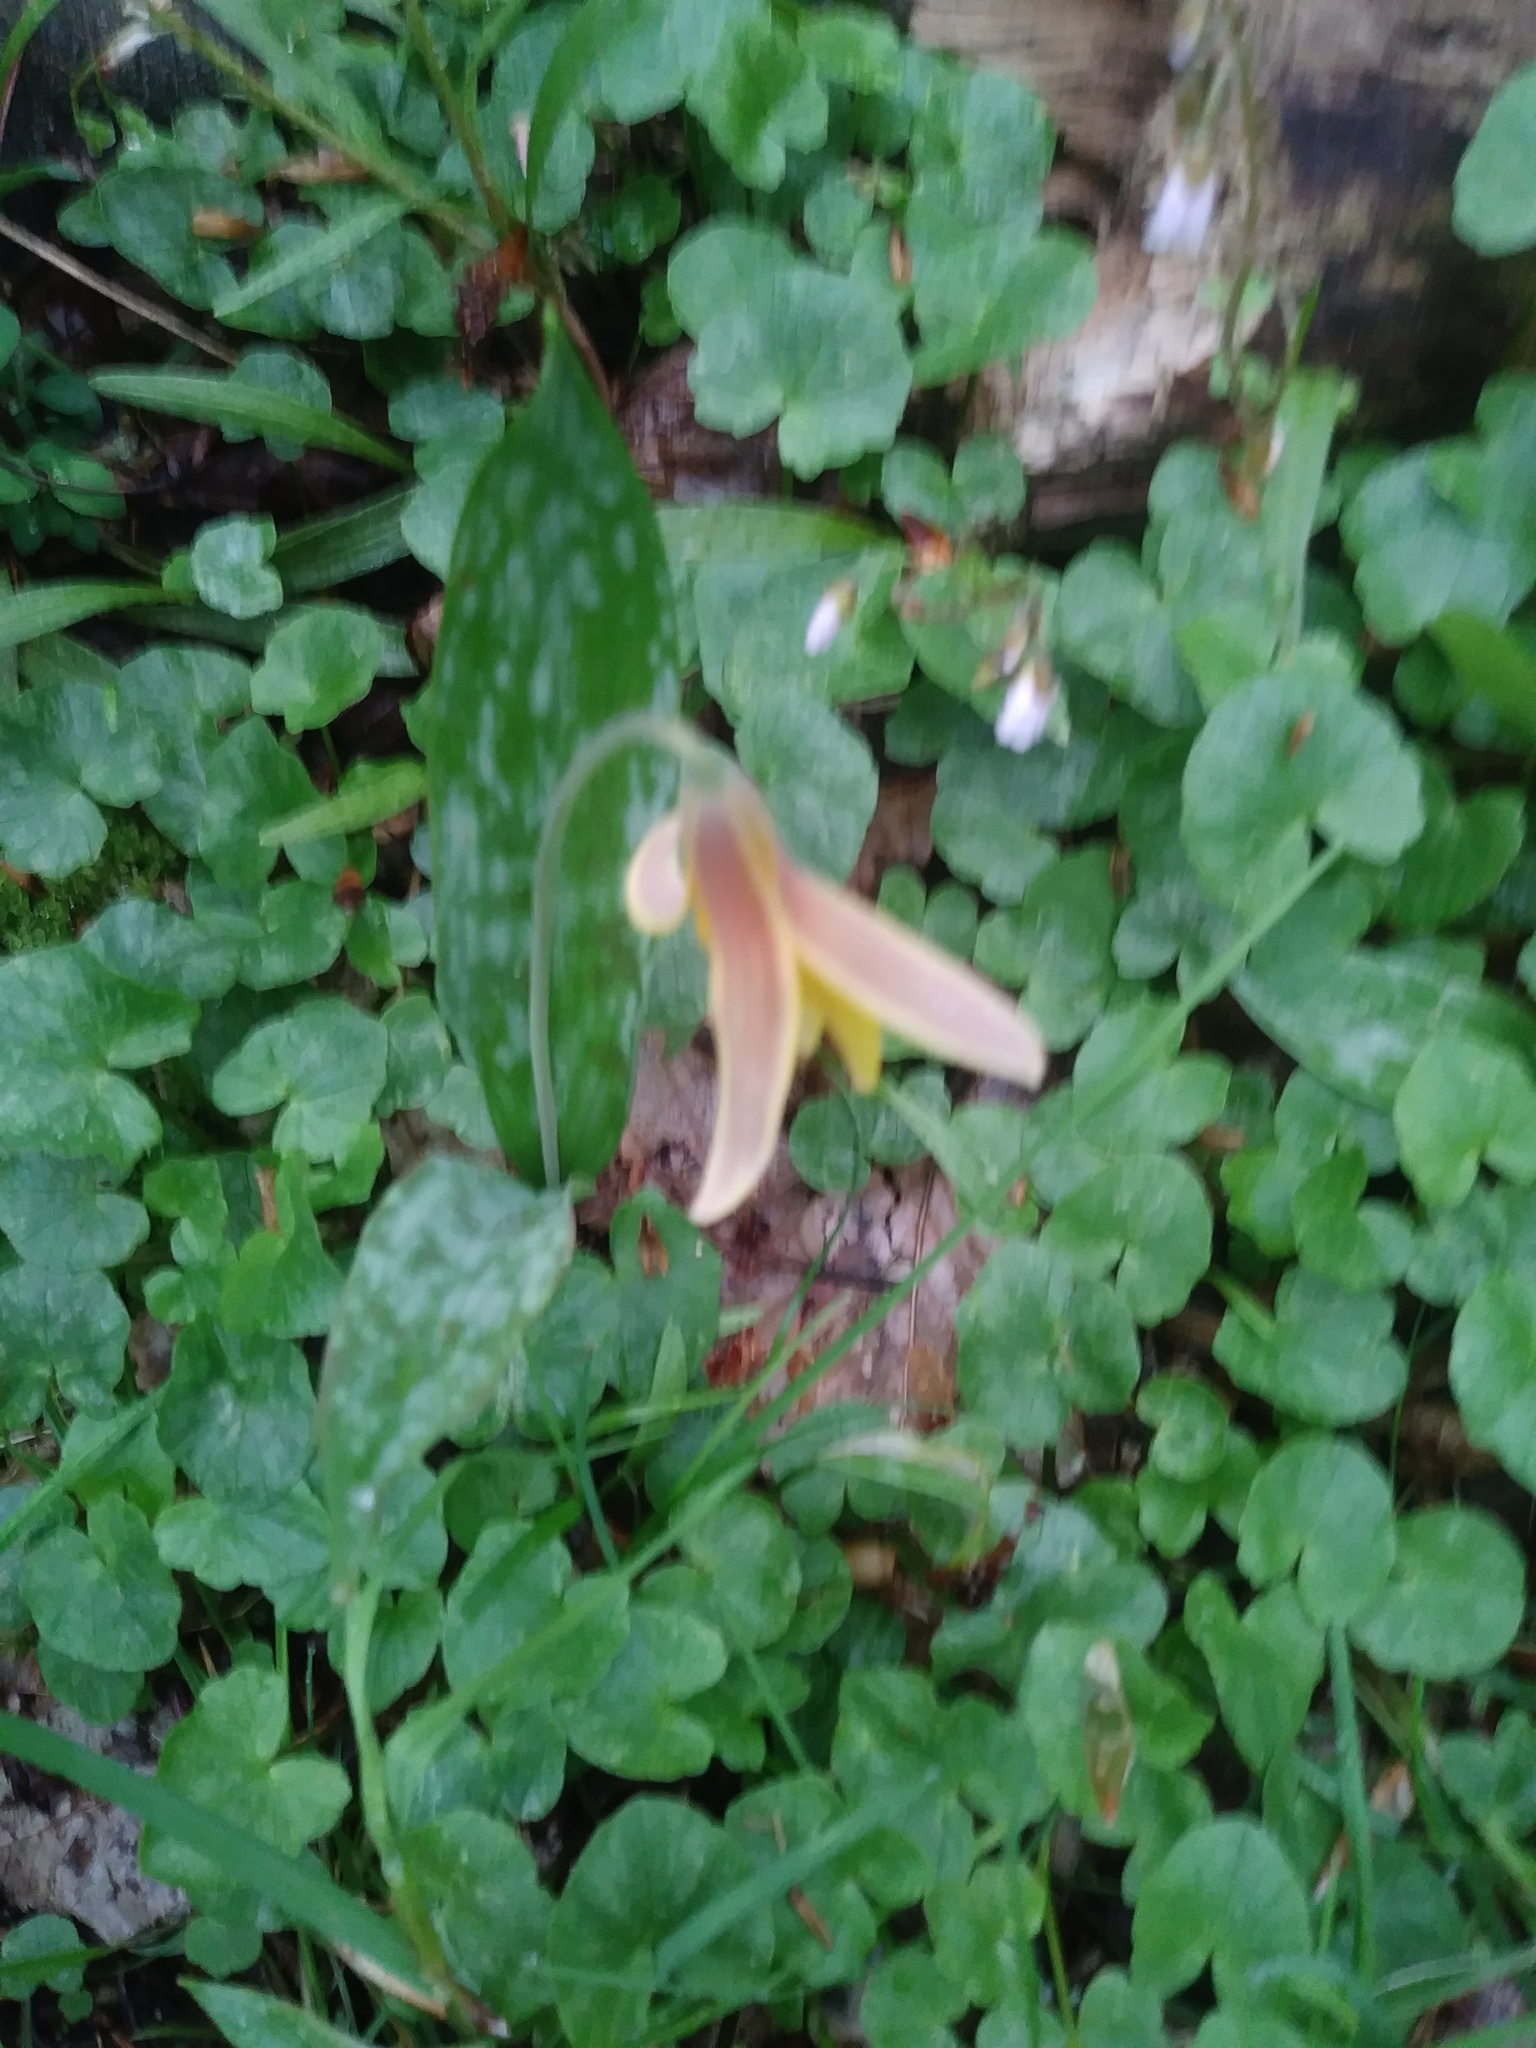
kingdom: Plantae
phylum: Tracheophyta
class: Liliopsida
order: Liliales
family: Liliaceae
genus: Erythronium
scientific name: Erythronium americanum
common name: Yellow adder's-tongue
